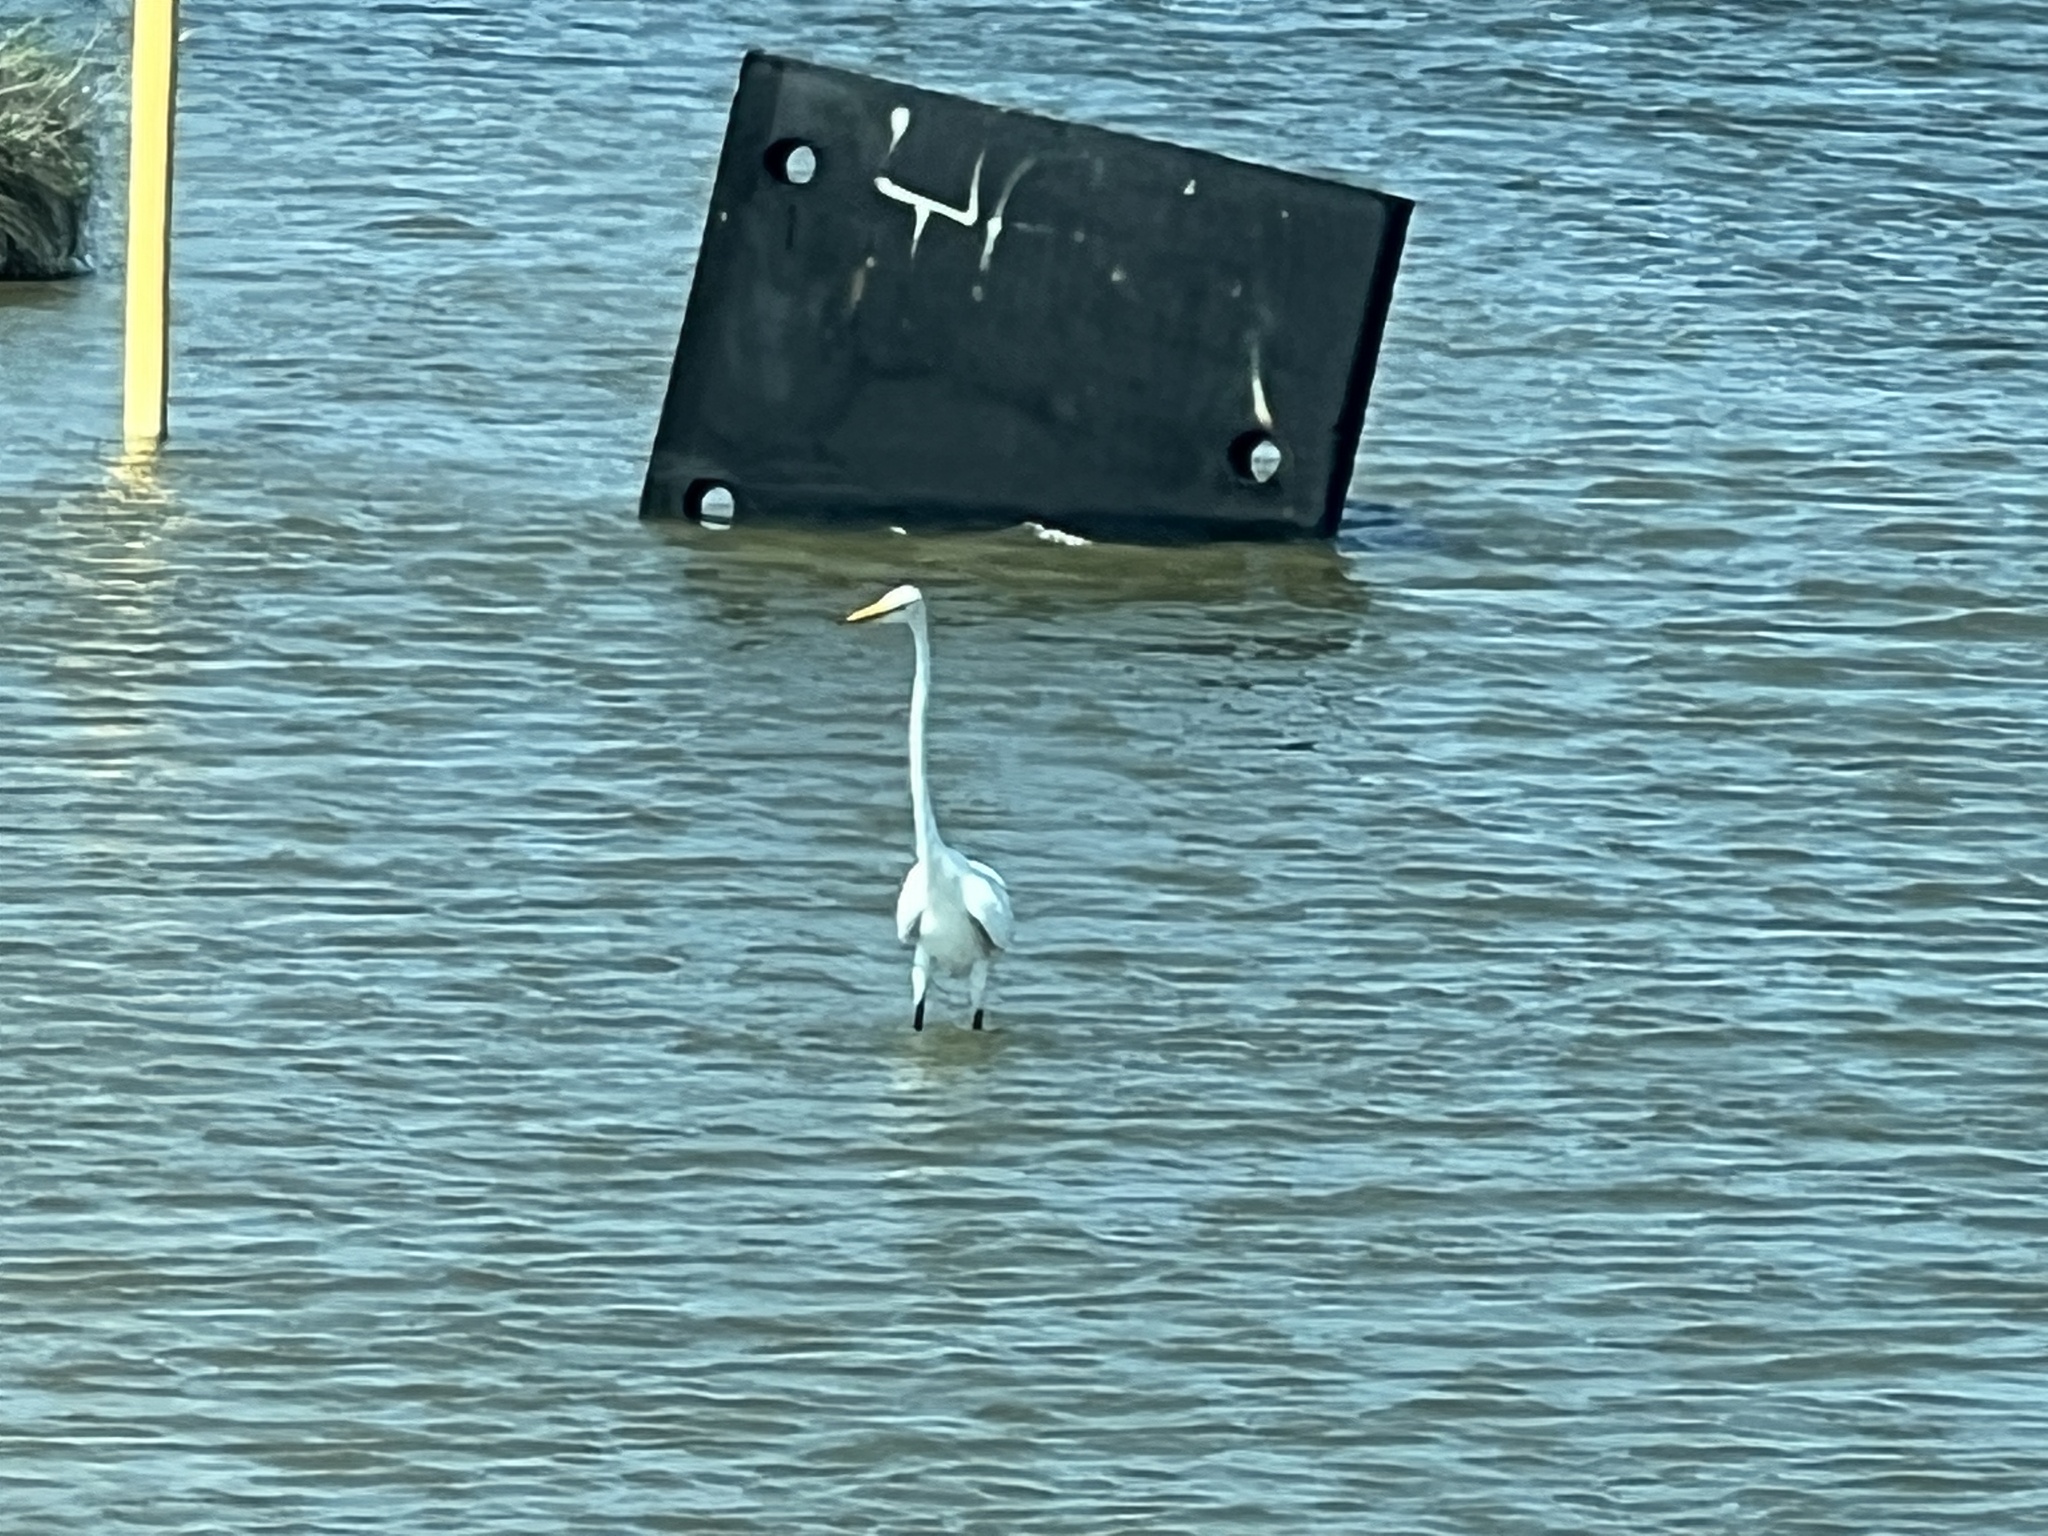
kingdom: Animalia
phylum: Chordata
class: Aves
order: Pelecaniformes
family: Ardeidae
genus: Ardea
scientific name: Ardea alba
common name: Great egret
